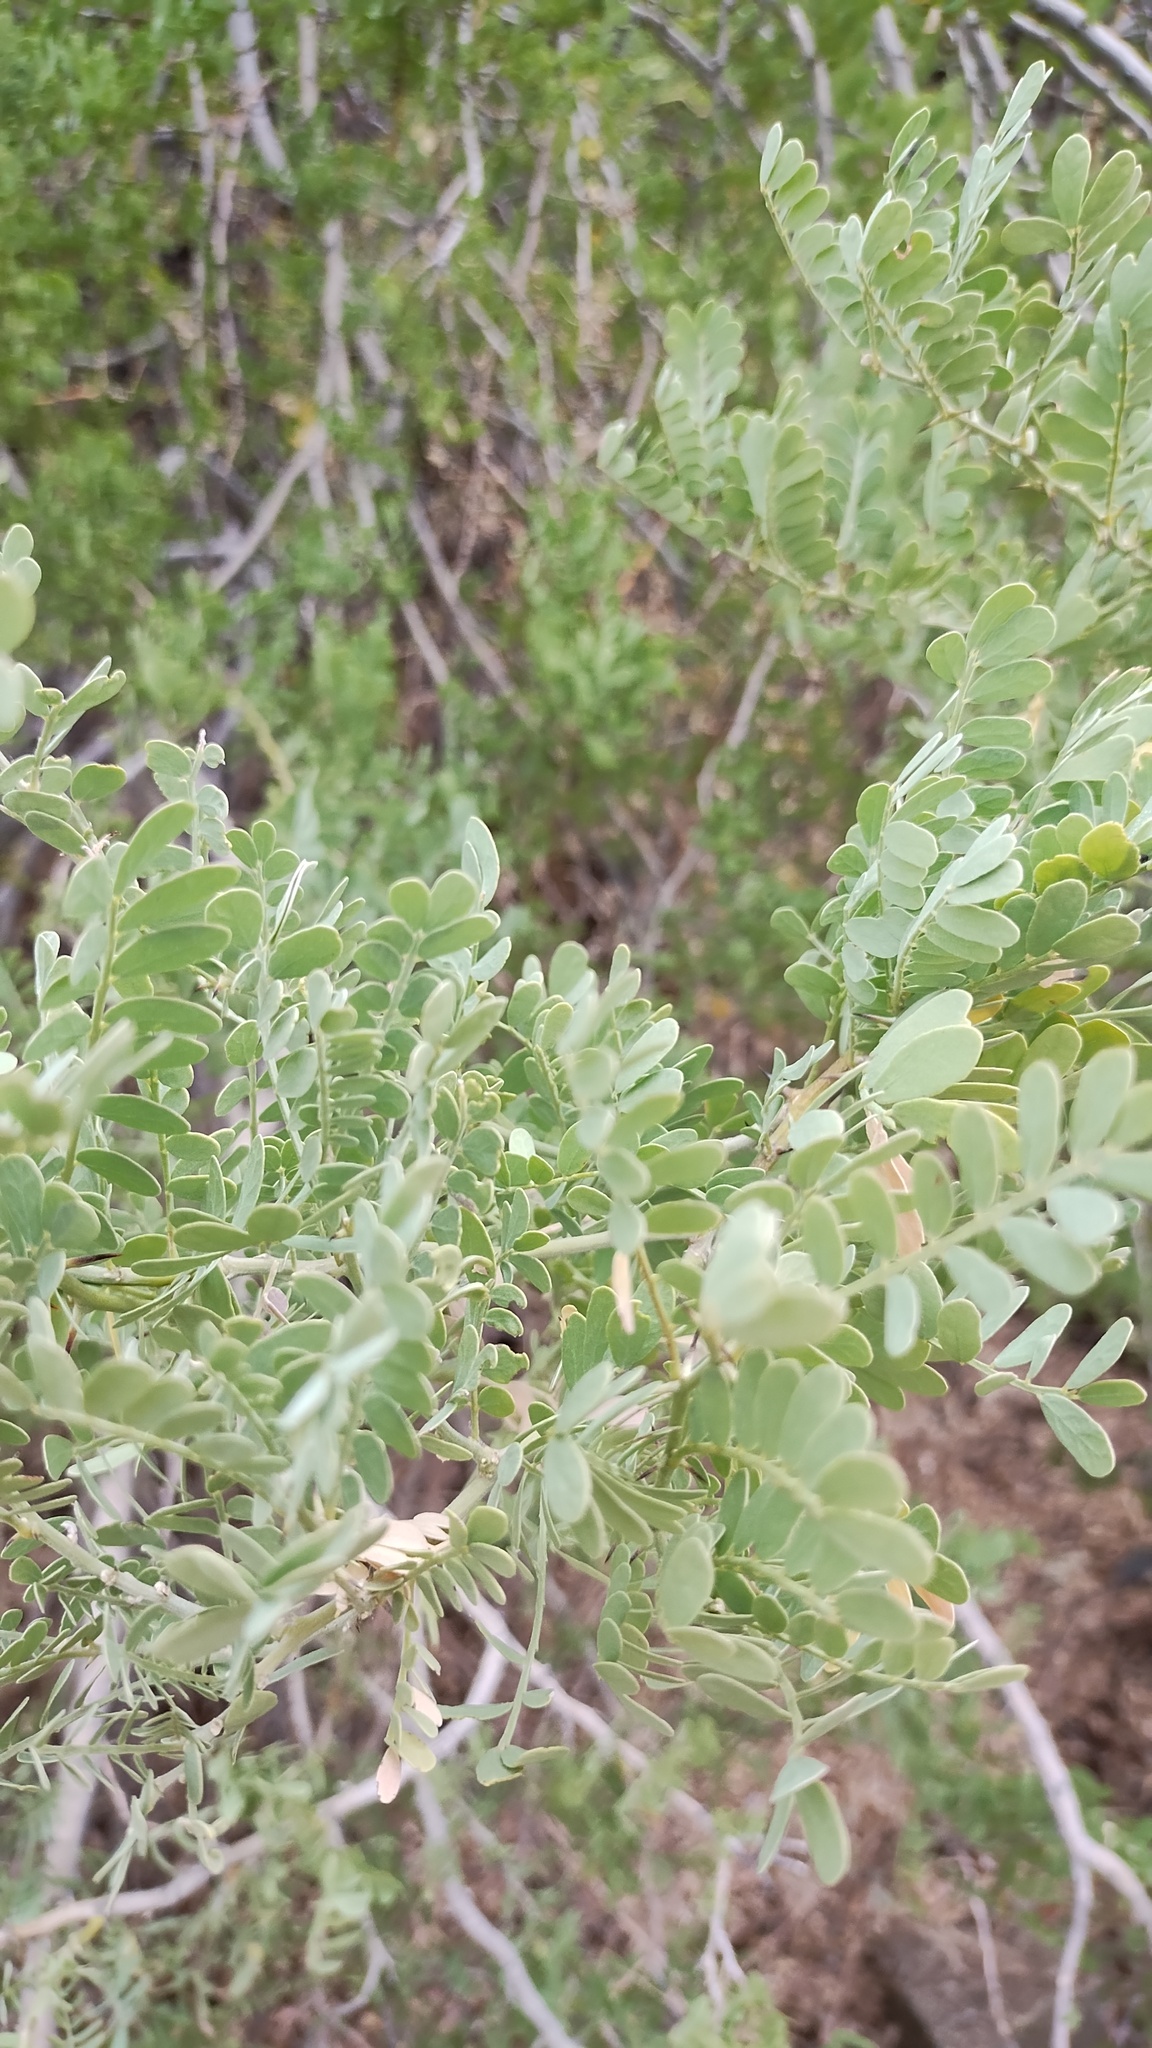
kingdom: Plantae
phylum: Tracheophyta
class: Magnoliopsida
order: Fabales
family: Fabaceae
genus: Olneya
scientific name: Olneya tesota
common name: Desert ironwood
